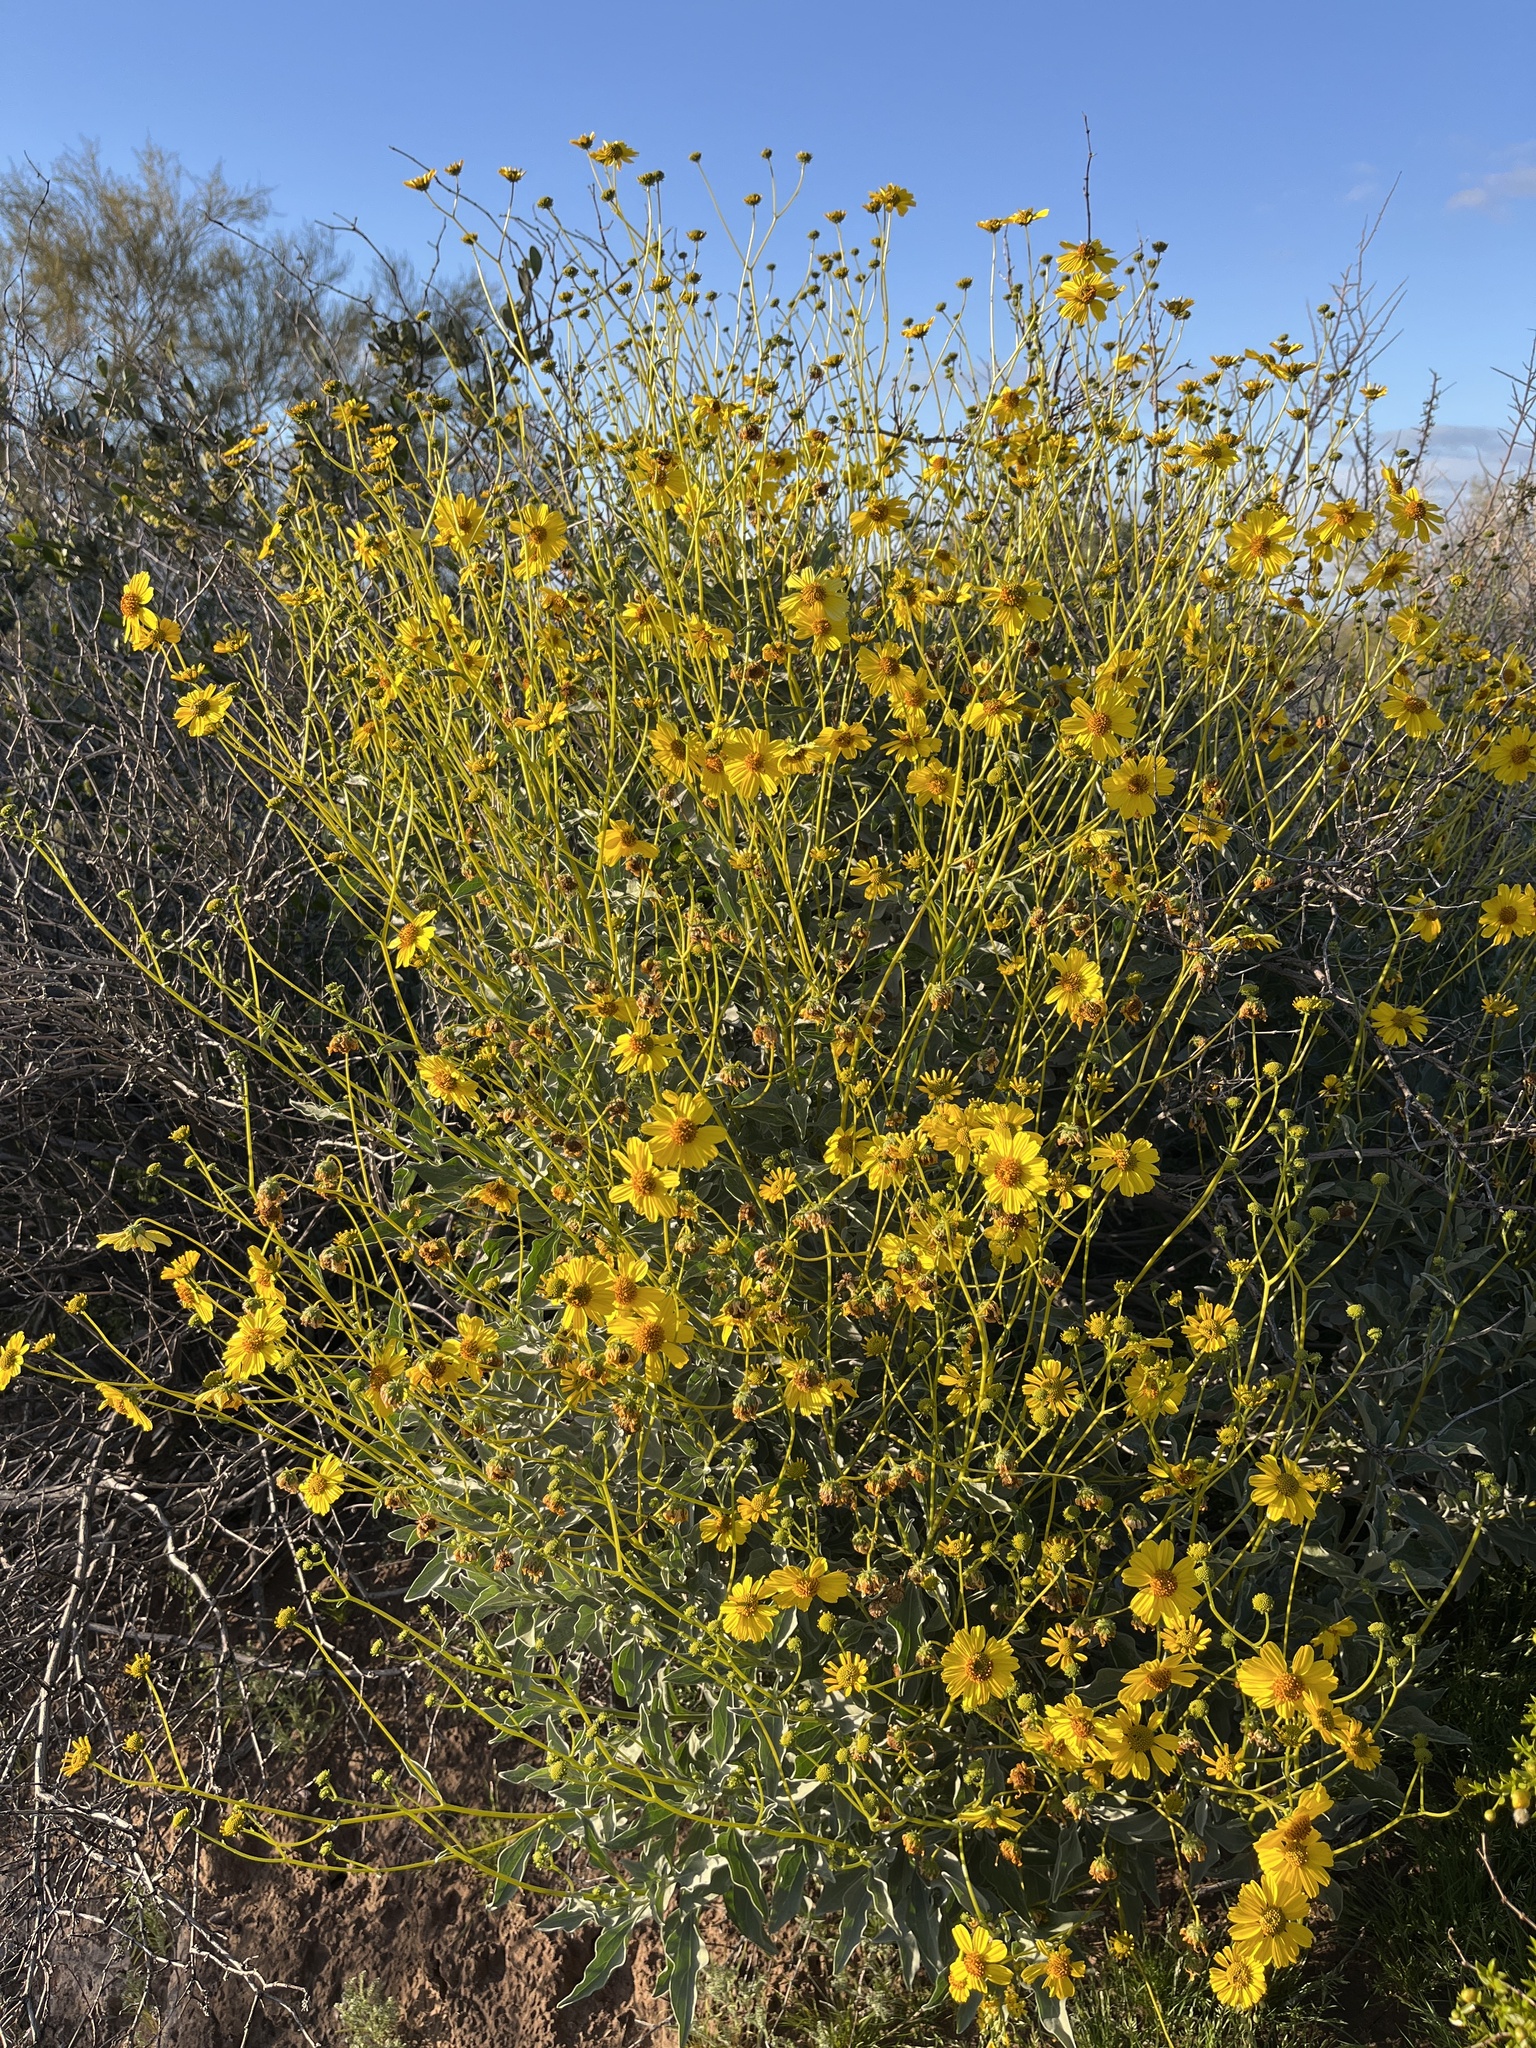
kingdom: Plantae
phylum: Tracheophyta
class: Magnoliopsida
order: Asterales
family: Asteraceae
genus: Encelia
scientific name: Encelia farinosa
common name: Brittlebush
